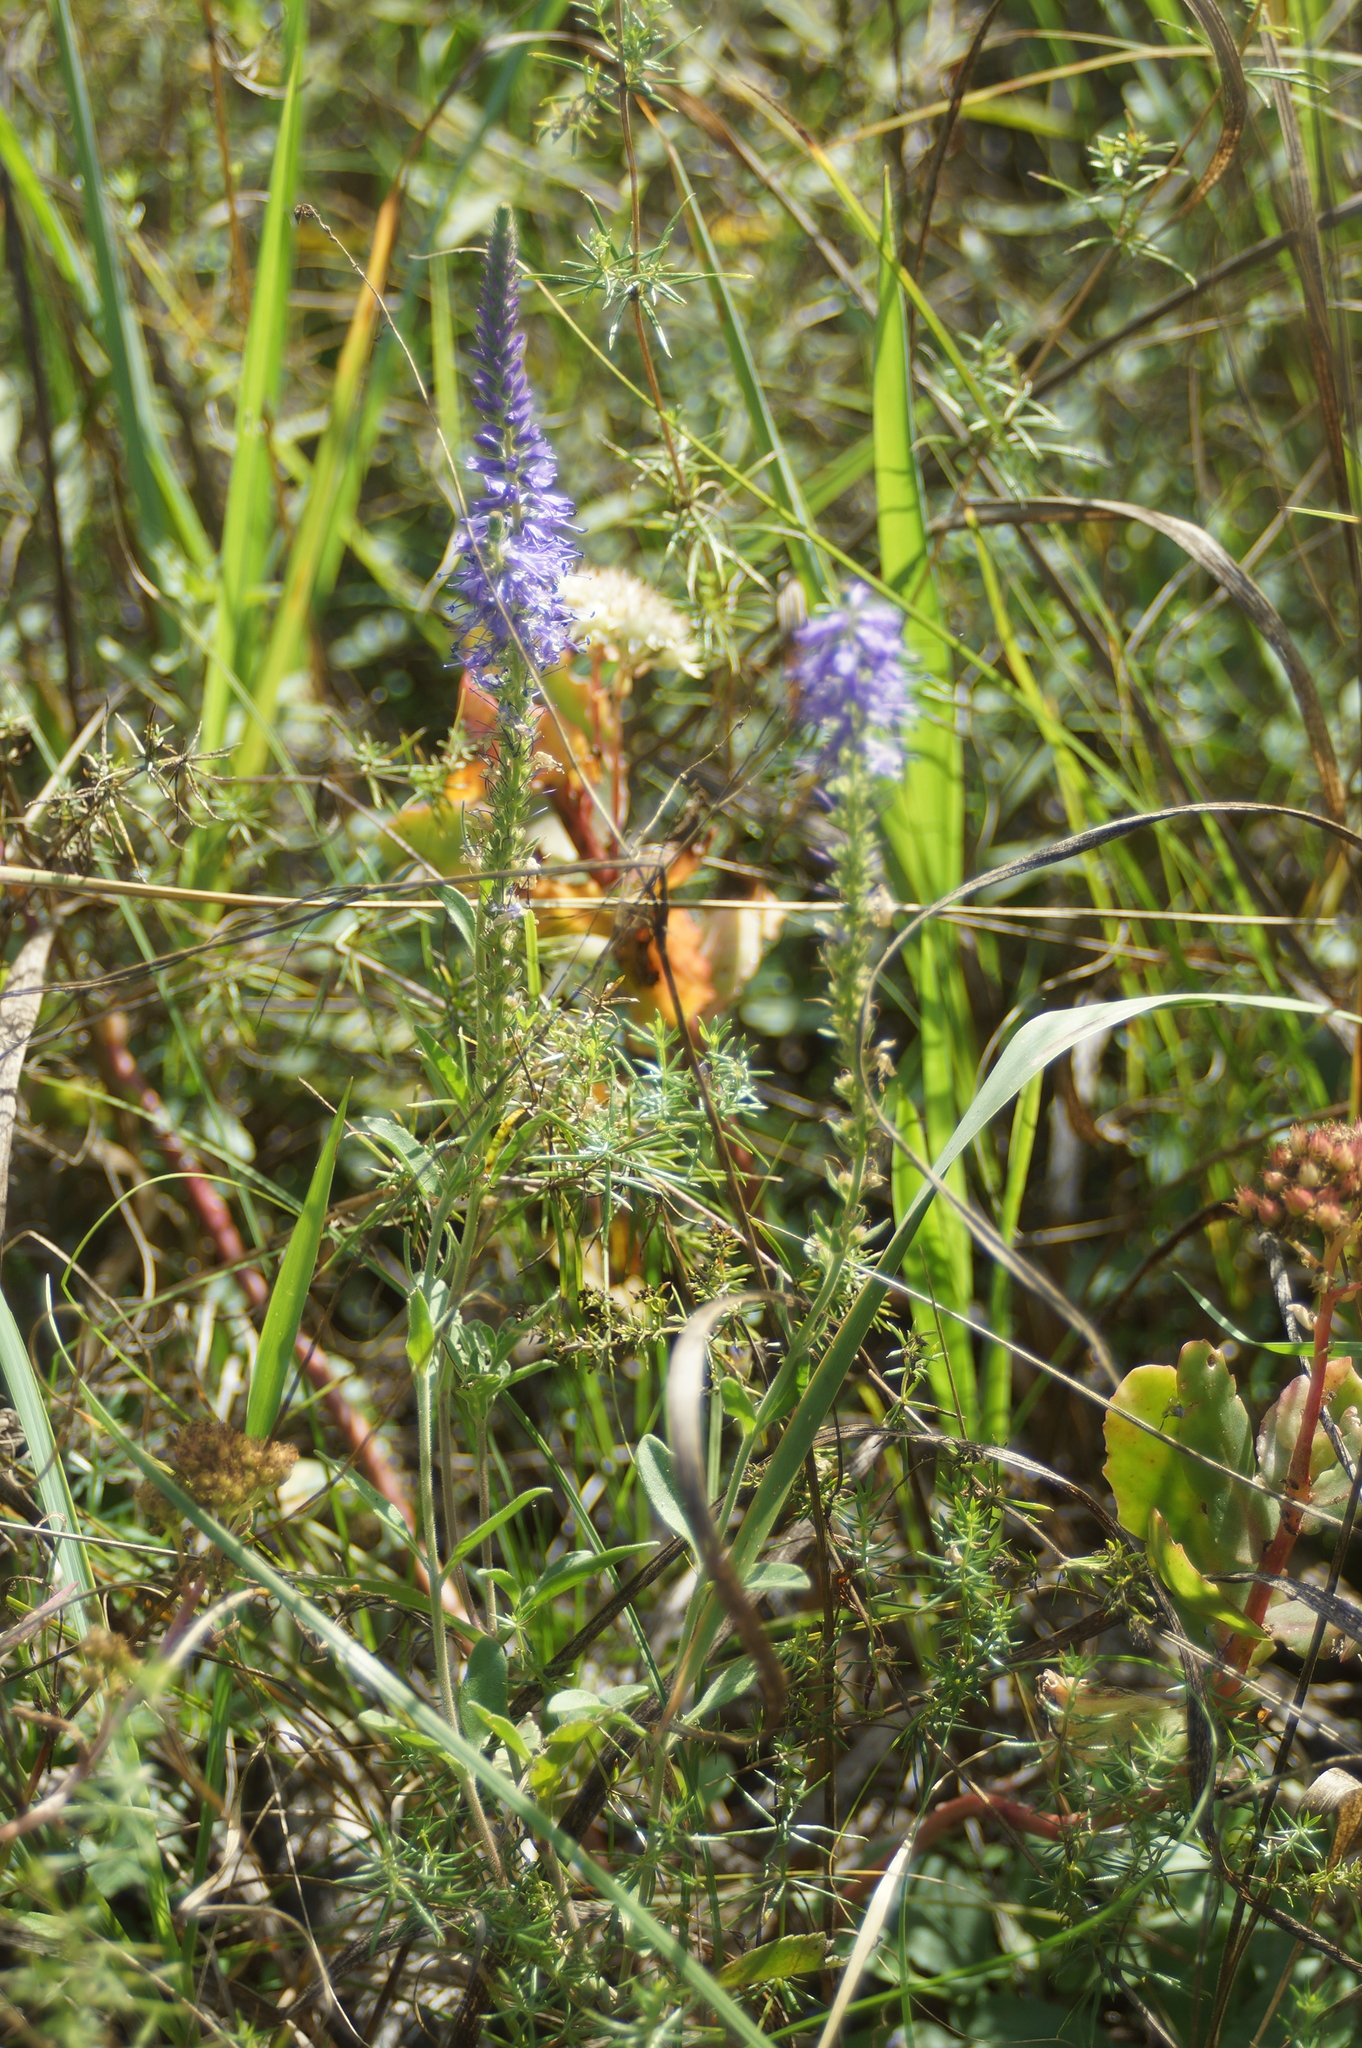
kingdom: Plantae
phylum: Tracheophyta
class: Magnoliopsida
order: Lamiales
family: Plantaginaceae
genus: Veronica
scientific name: Veronica spicata
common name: Spiked speedwell
